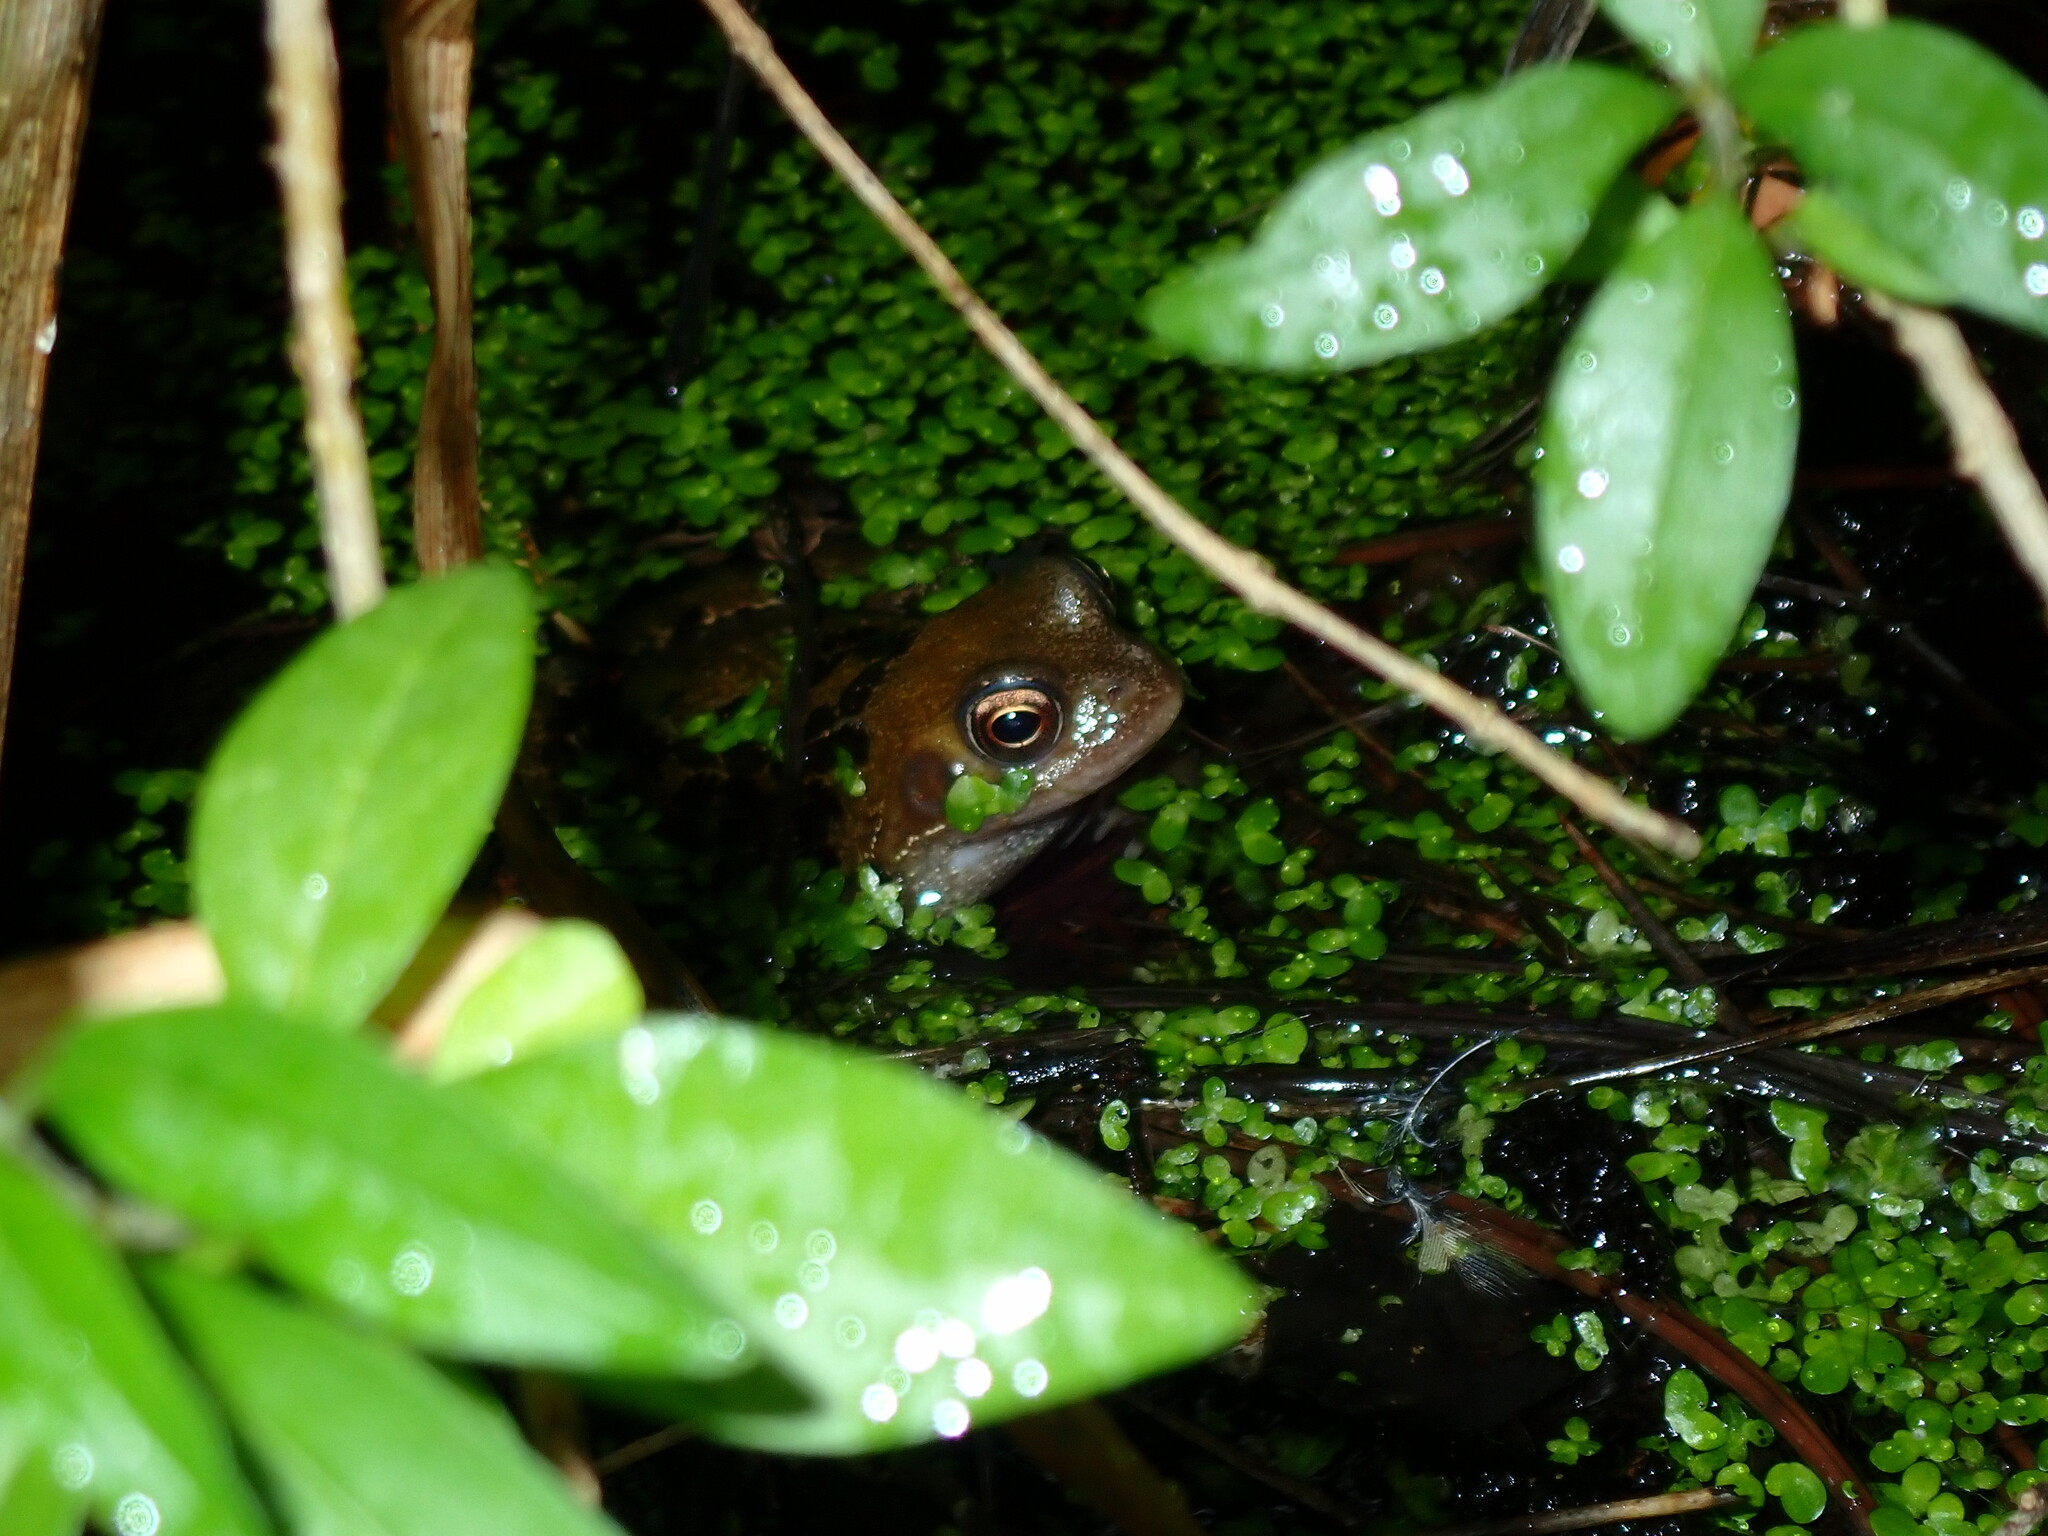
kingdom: Animalia
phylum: Chordata
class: Amphibia
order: Anura
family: Ranidae
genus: Rana
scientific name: Rana temporaria
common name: Common frog
